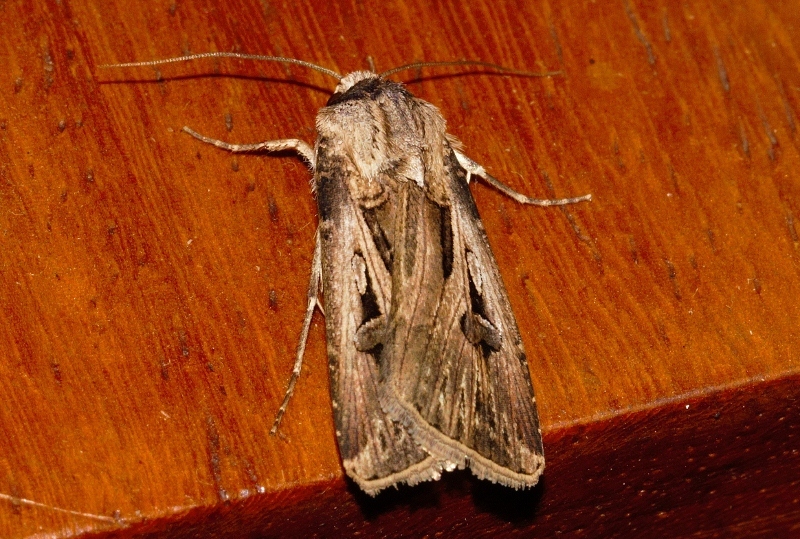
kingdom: Animalia
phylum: Arthropoda
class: Insecta
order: Lepidoptera
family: Noctuidae
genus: Agrotis
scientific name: Agrotis
